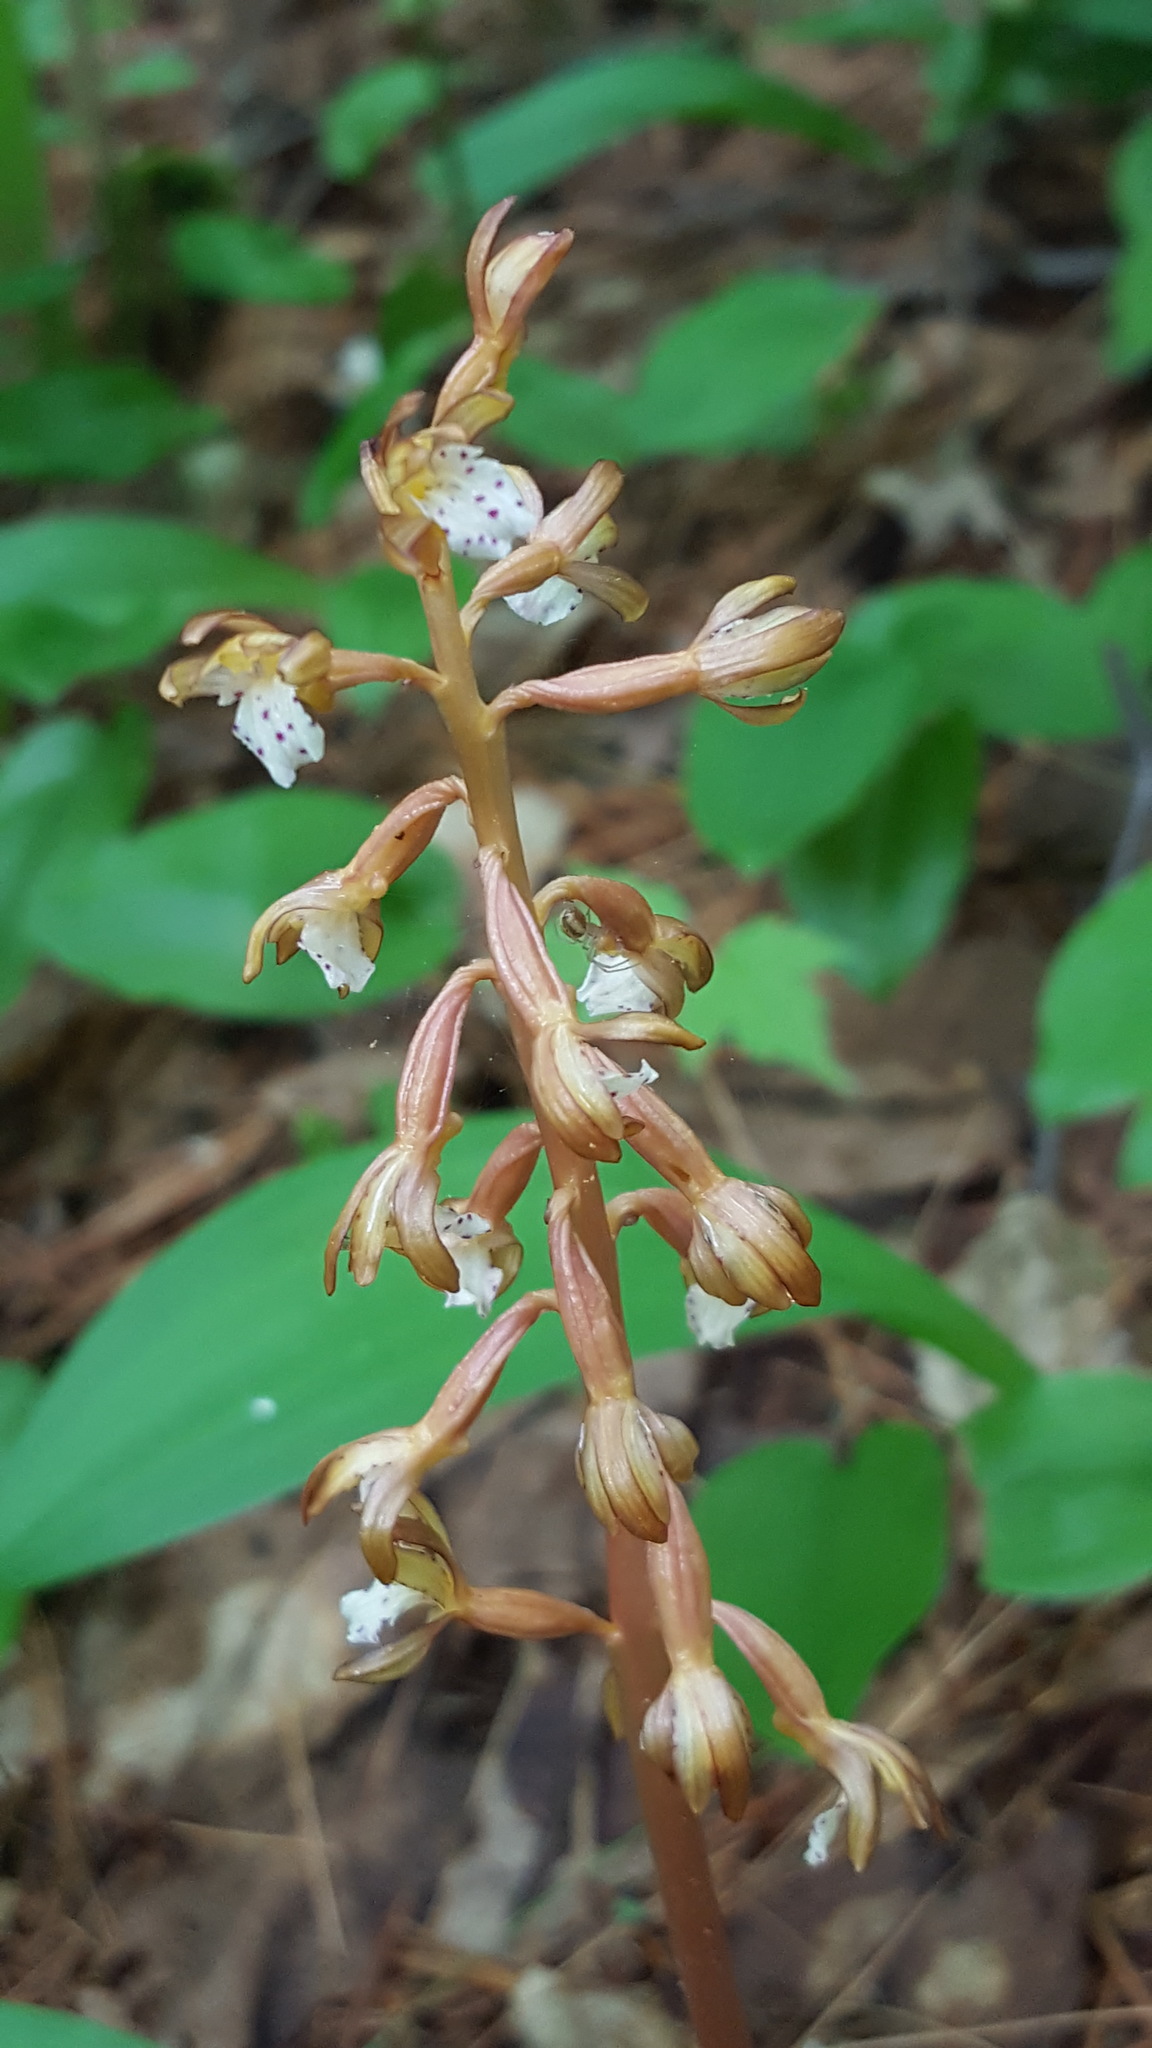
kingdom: Plantae
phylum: Tracheophyta
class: Liliopsida
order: Asparagales
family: Orchidaceae
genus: Corallorhiza
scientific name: Corallorhiza maculata
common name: Spotted coralroot
